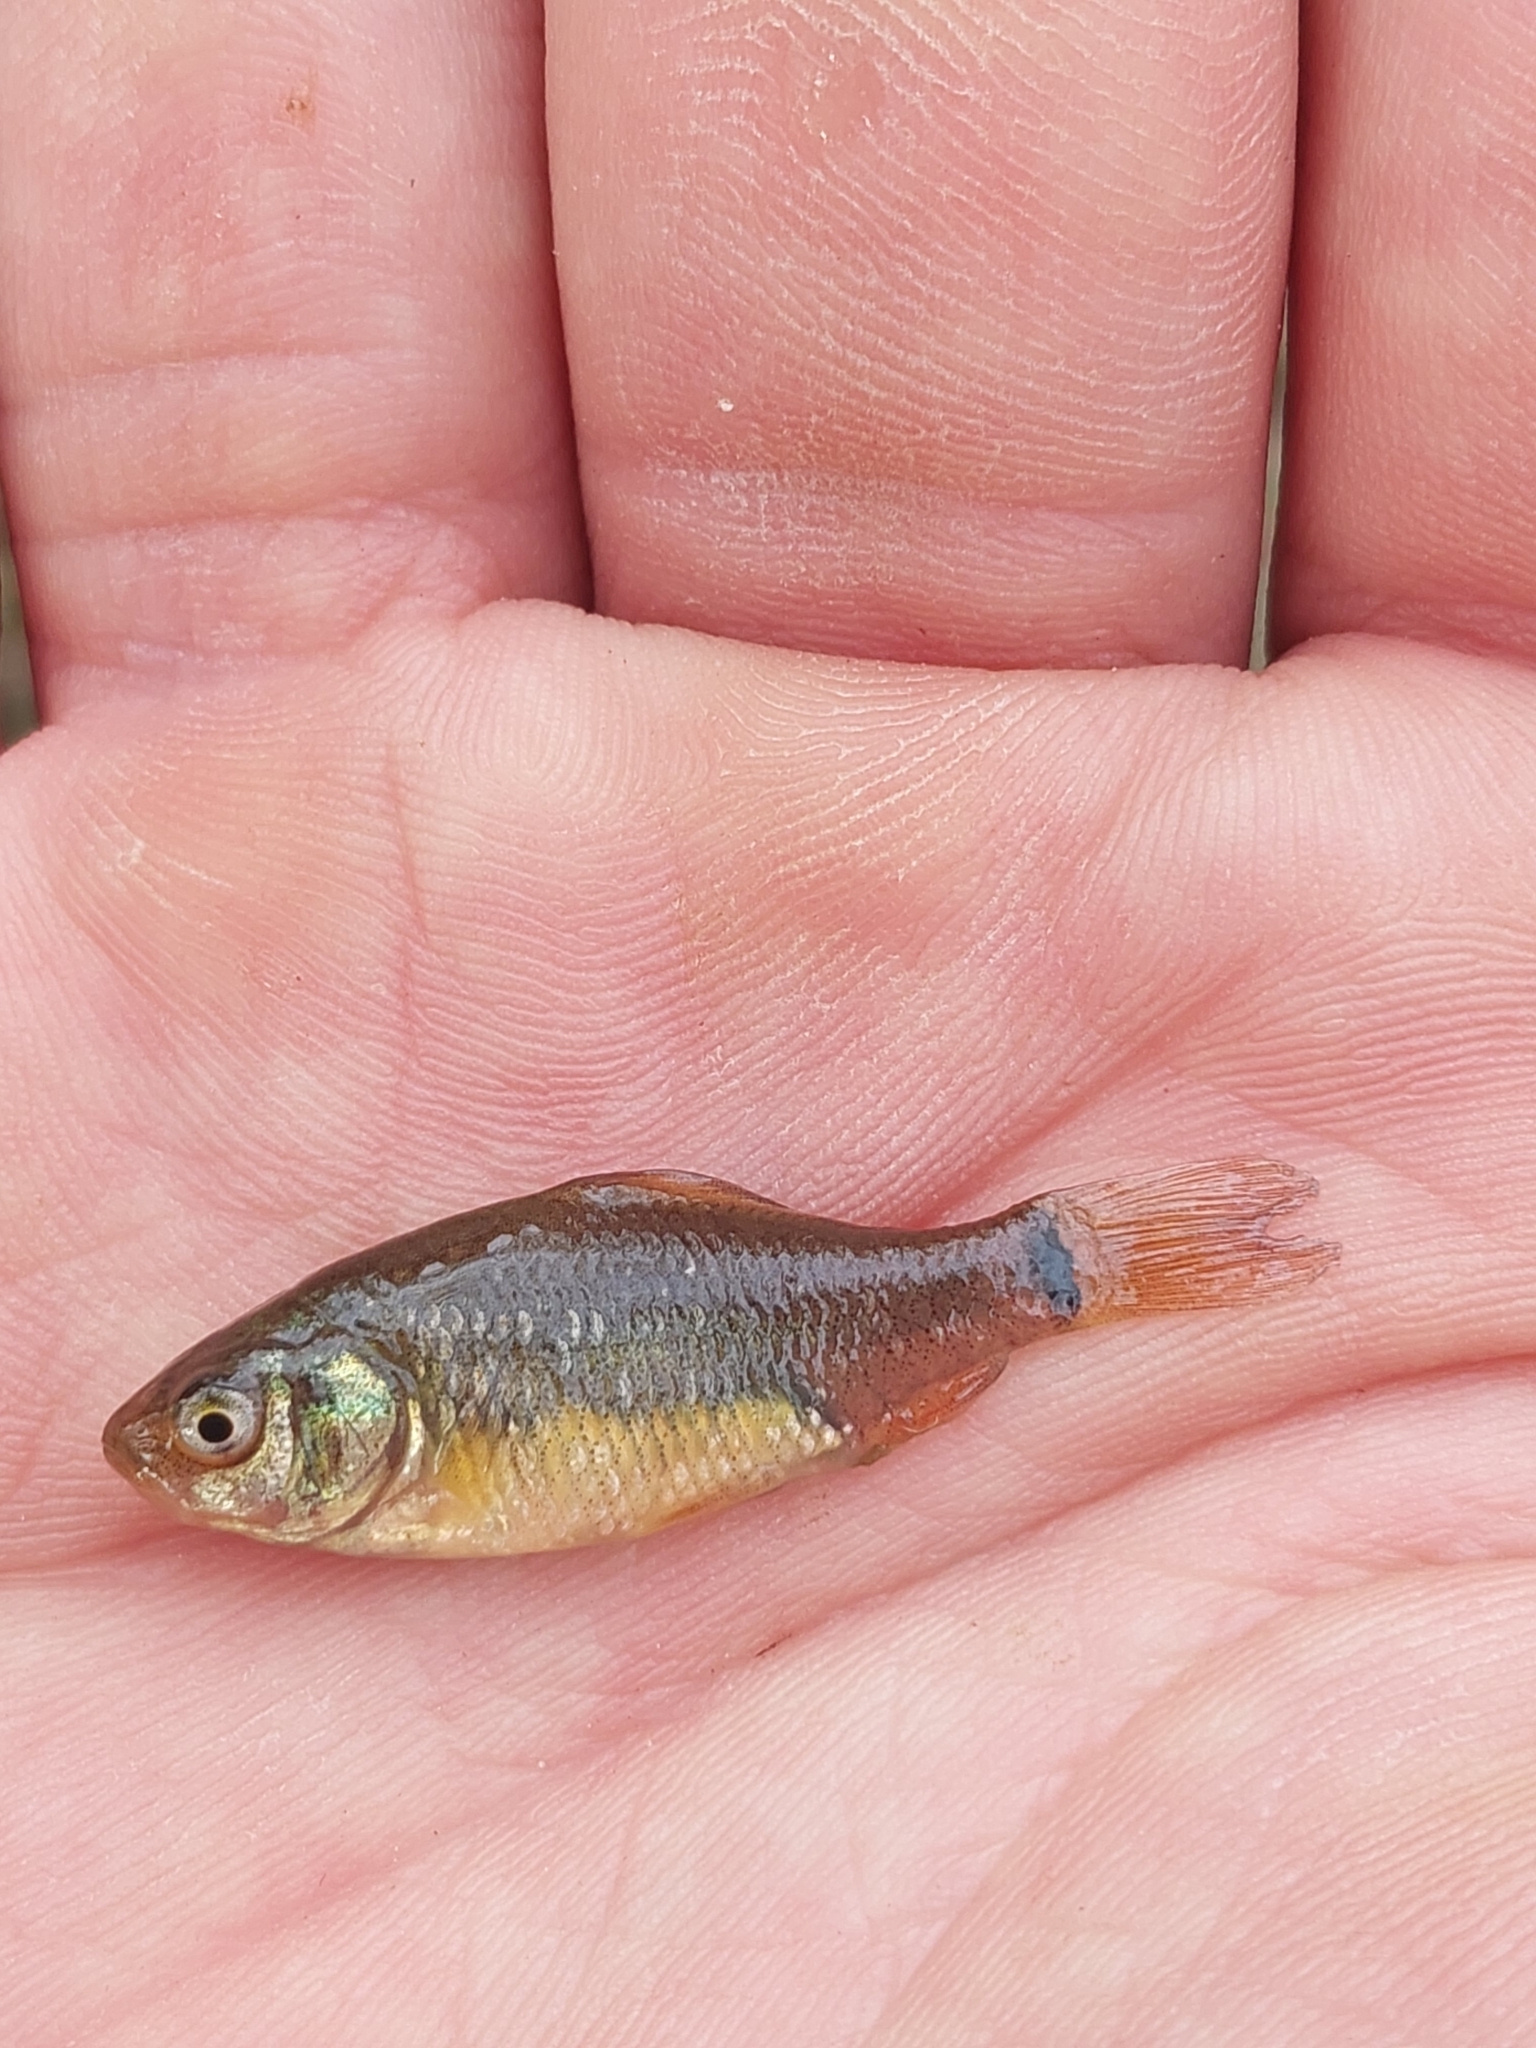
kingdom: Animalia
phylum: Chordata
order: Cypriniformes
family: Cyprinidae
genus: Carassius
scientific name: Carassius carassius
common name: Crucian carp
